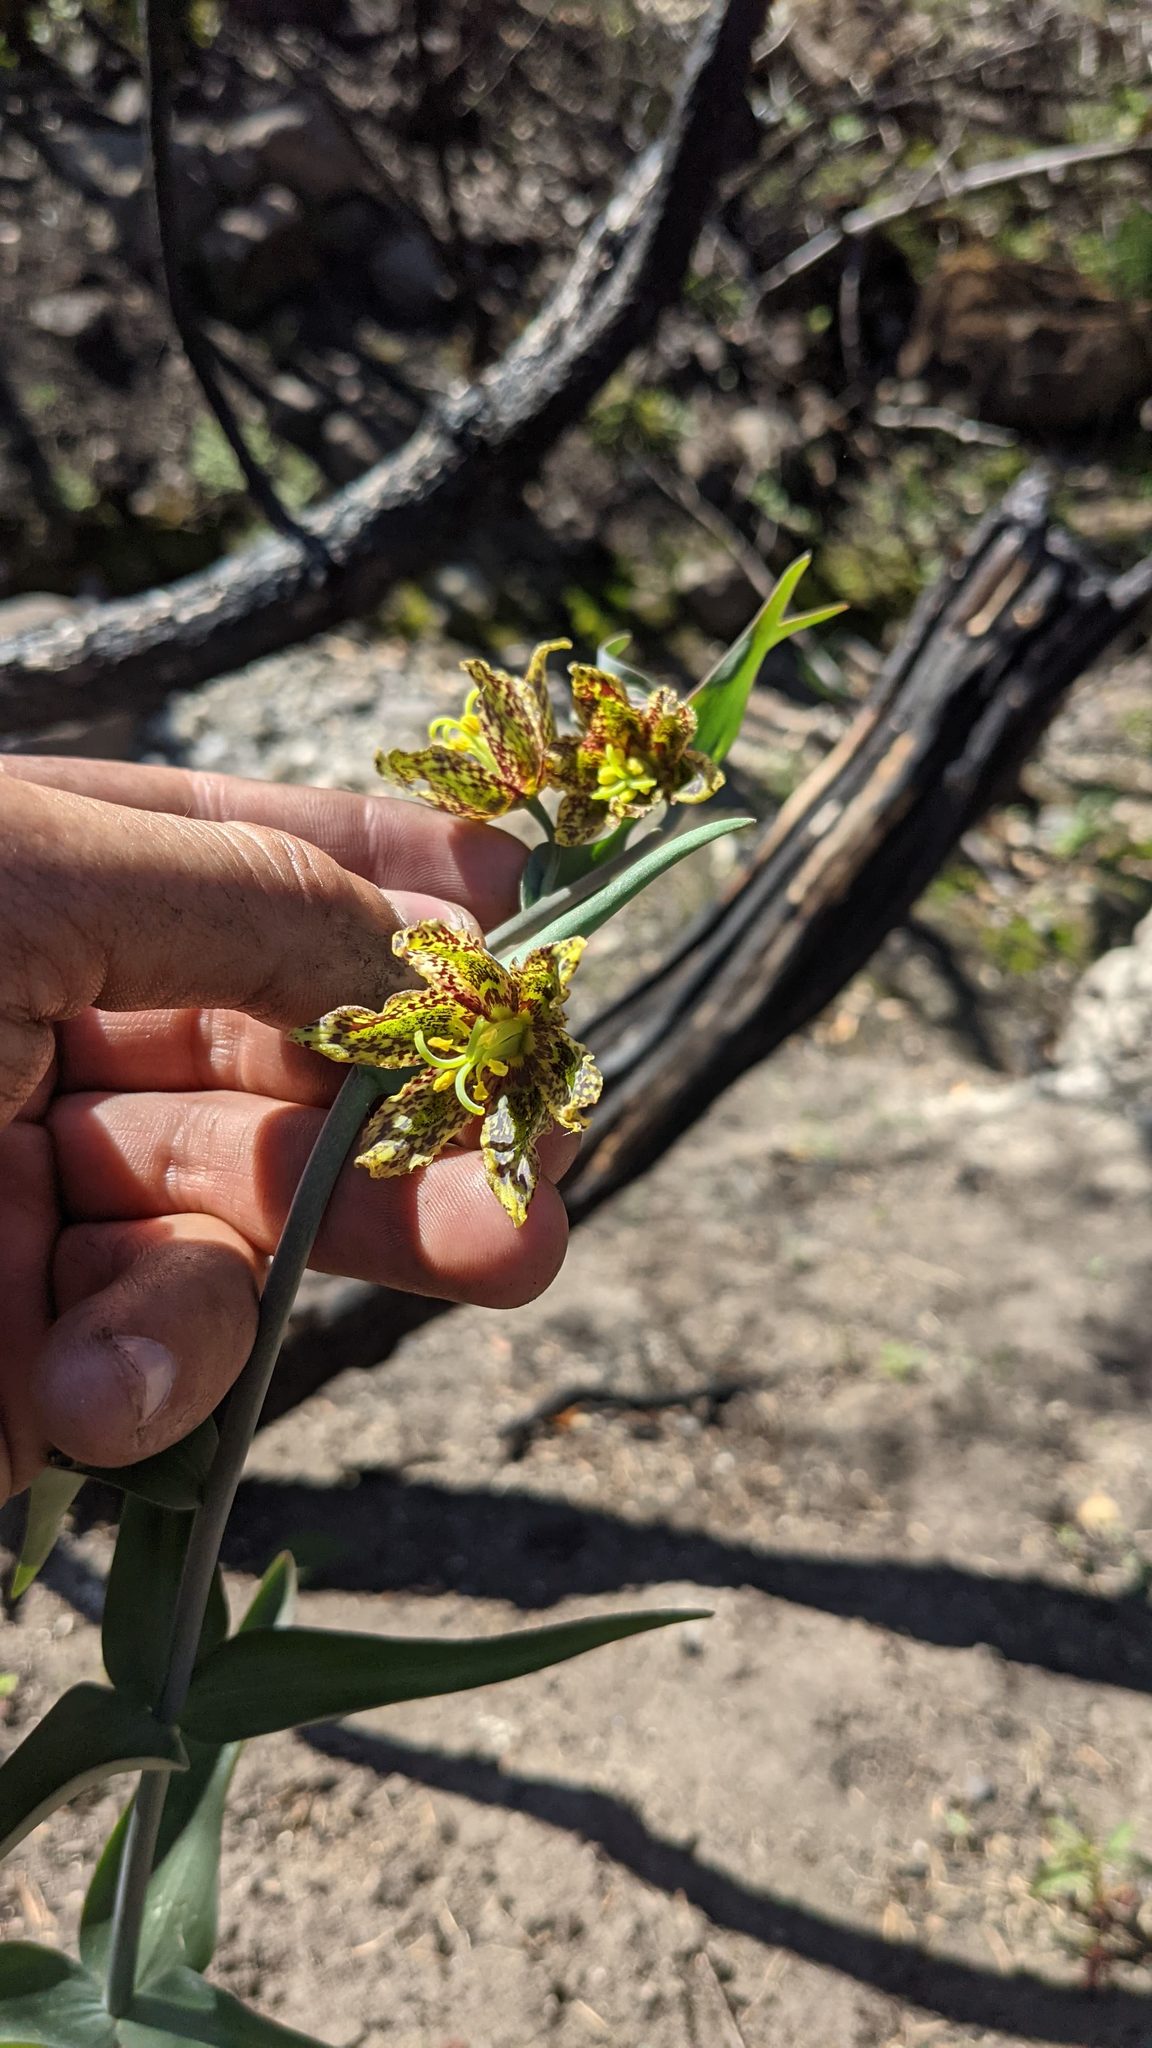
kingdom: Plantae
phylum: Tracheophyta
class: Liliopsida
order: Liliales
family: Liliaceae
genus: Fritillaria
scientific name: Fritillaria affinis
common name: Ojai fritillary
